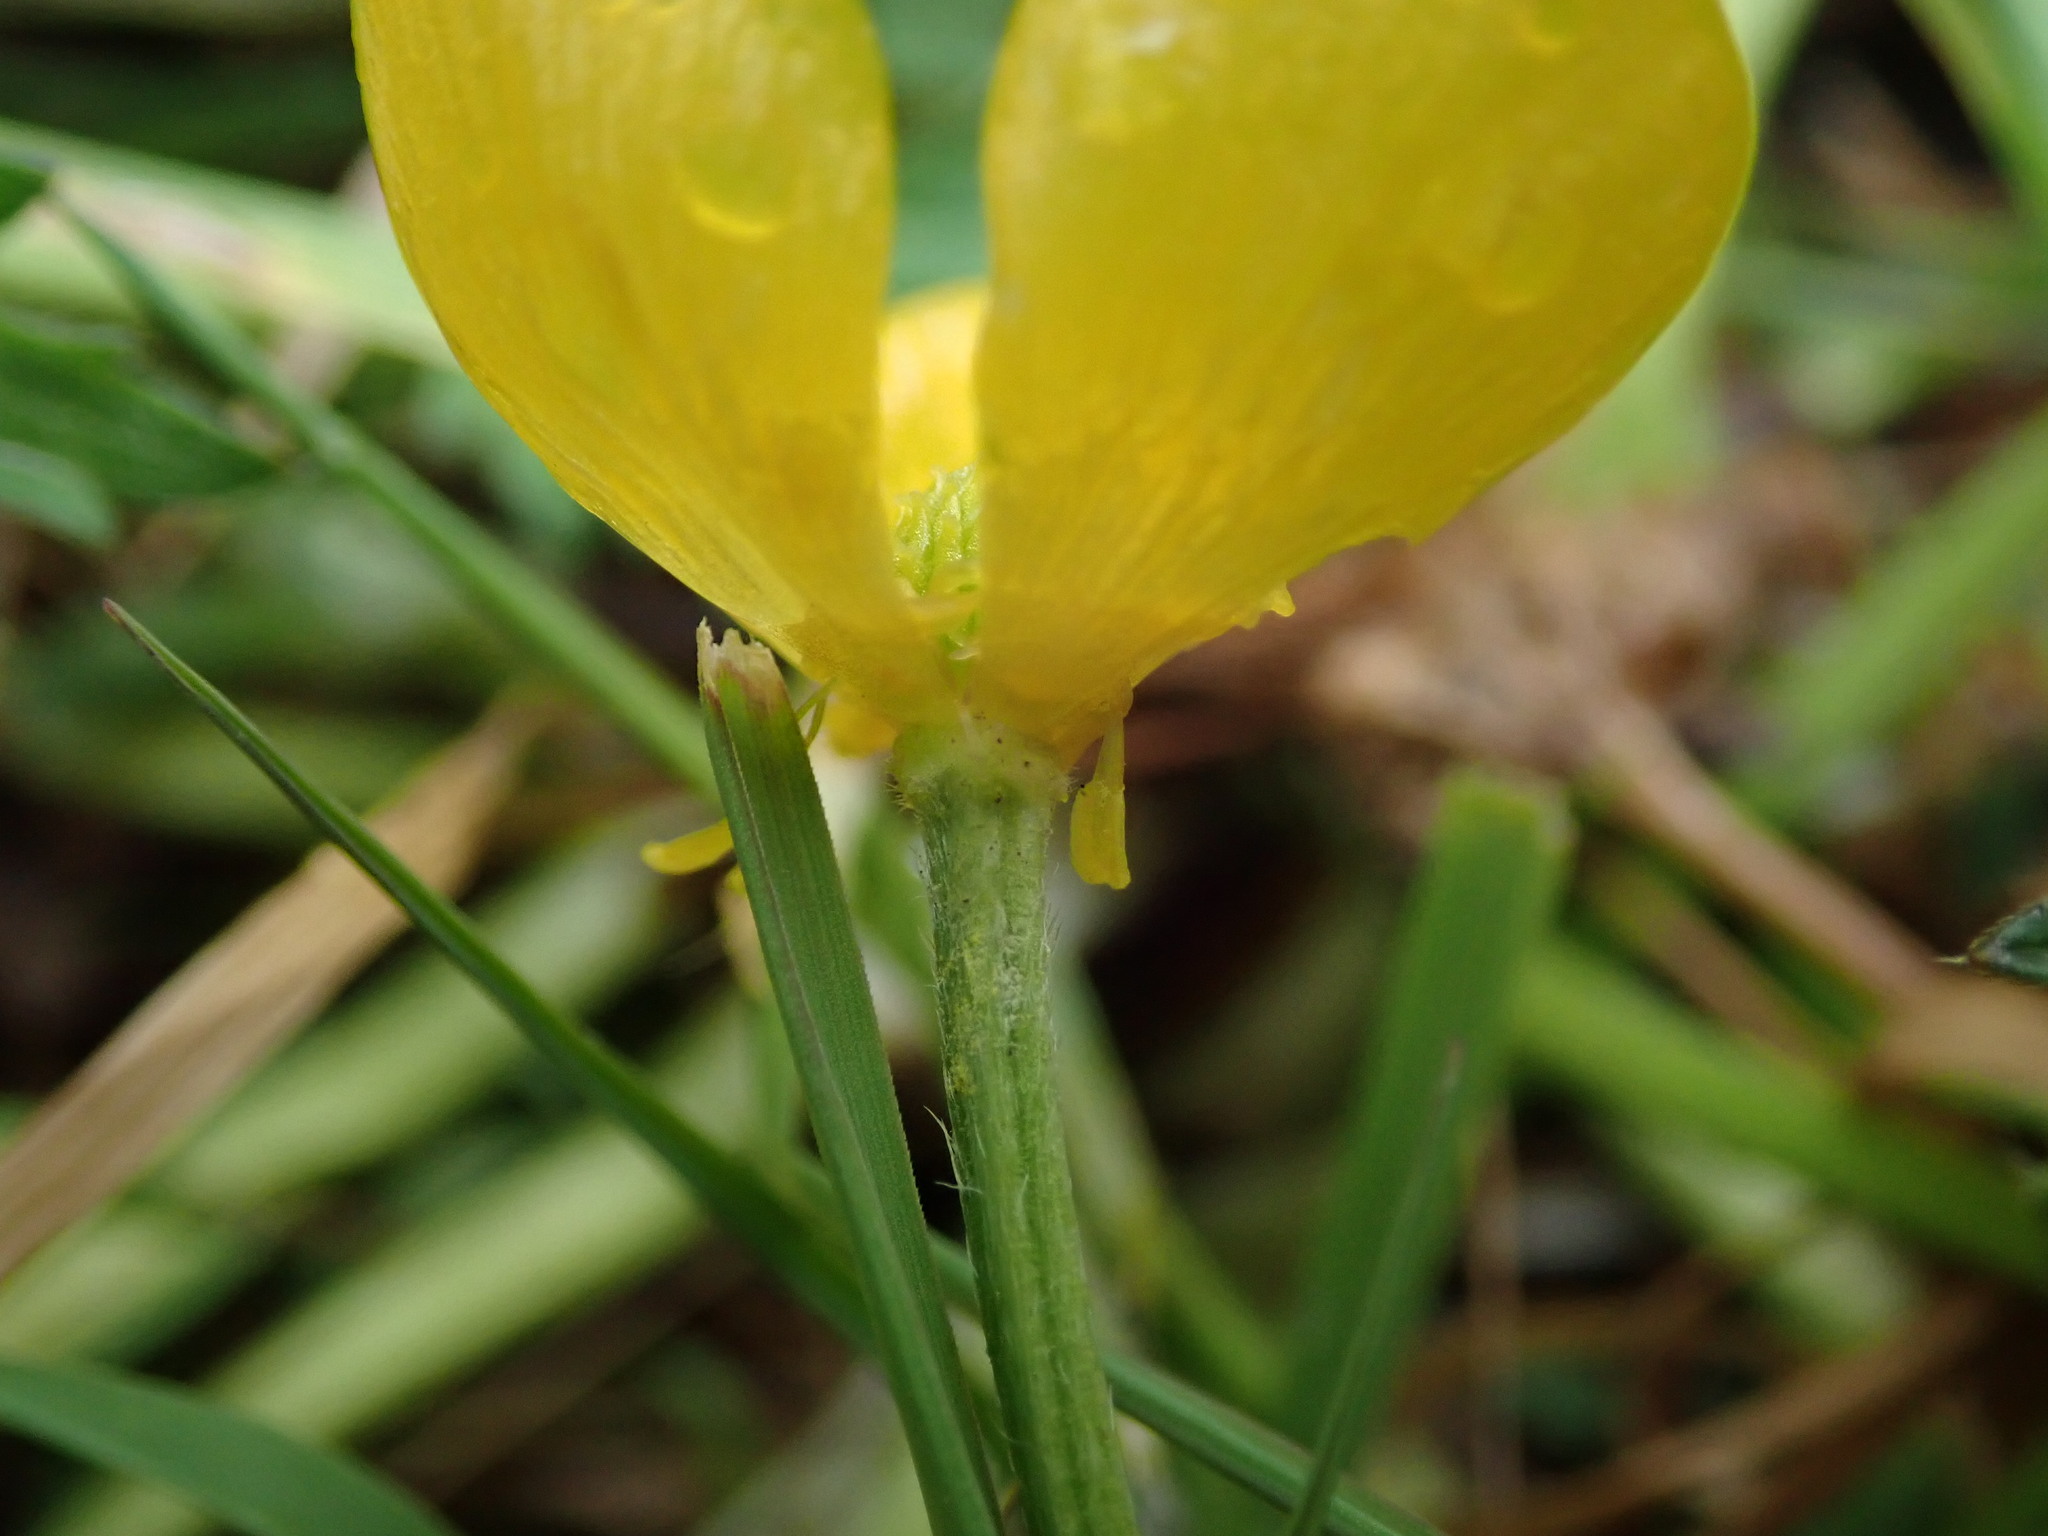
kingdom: Plantae
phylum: Tracheophyta
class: Magnoliopsida
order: Ranunculales
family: Ranunculaceae
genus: Ranunculus
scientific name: Ranunculus repens
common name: Creeping buttercup
